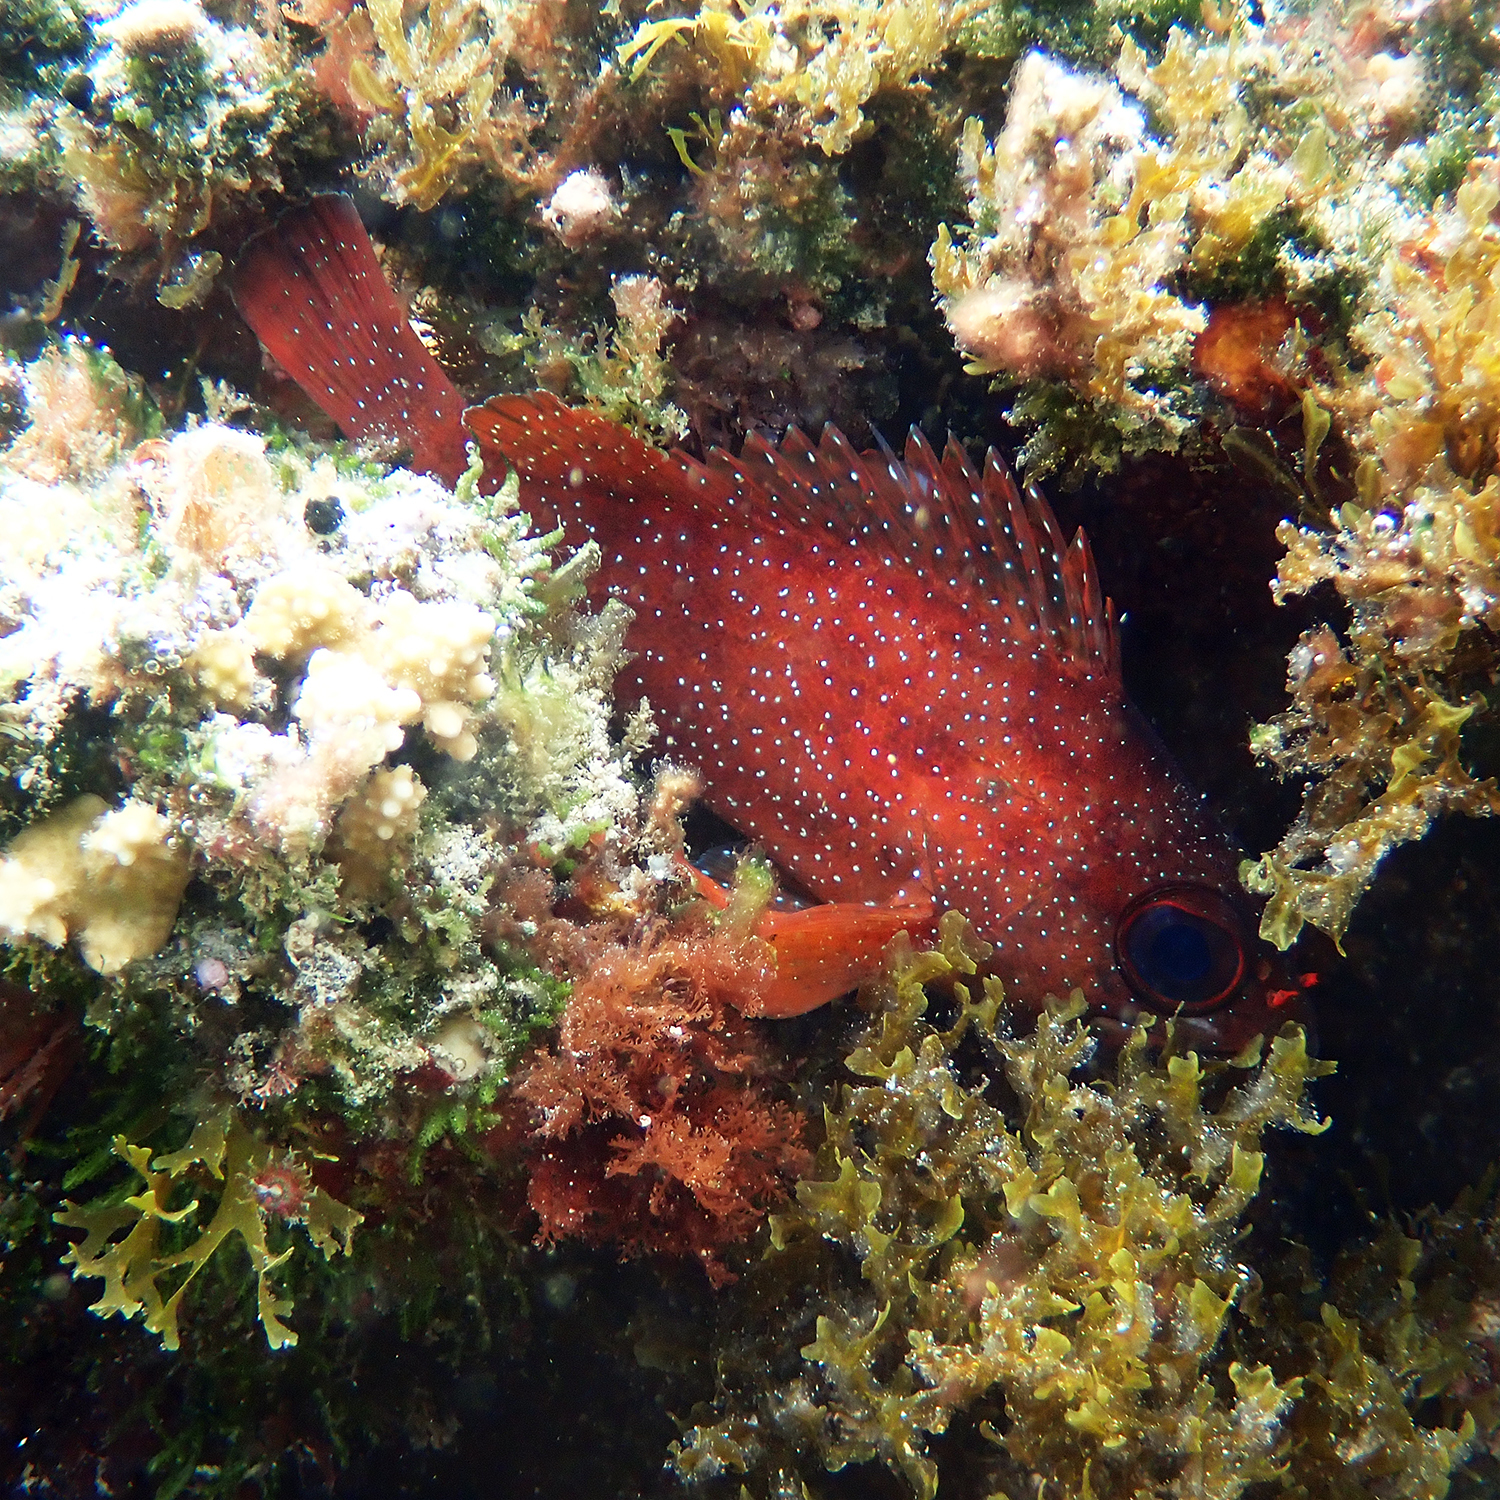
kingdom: Animalia
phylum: Chordata
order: Perciformes
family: Serranidae
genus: Trachypoma
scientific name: Trachypoma macracanthus
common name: Toadstool grouper
